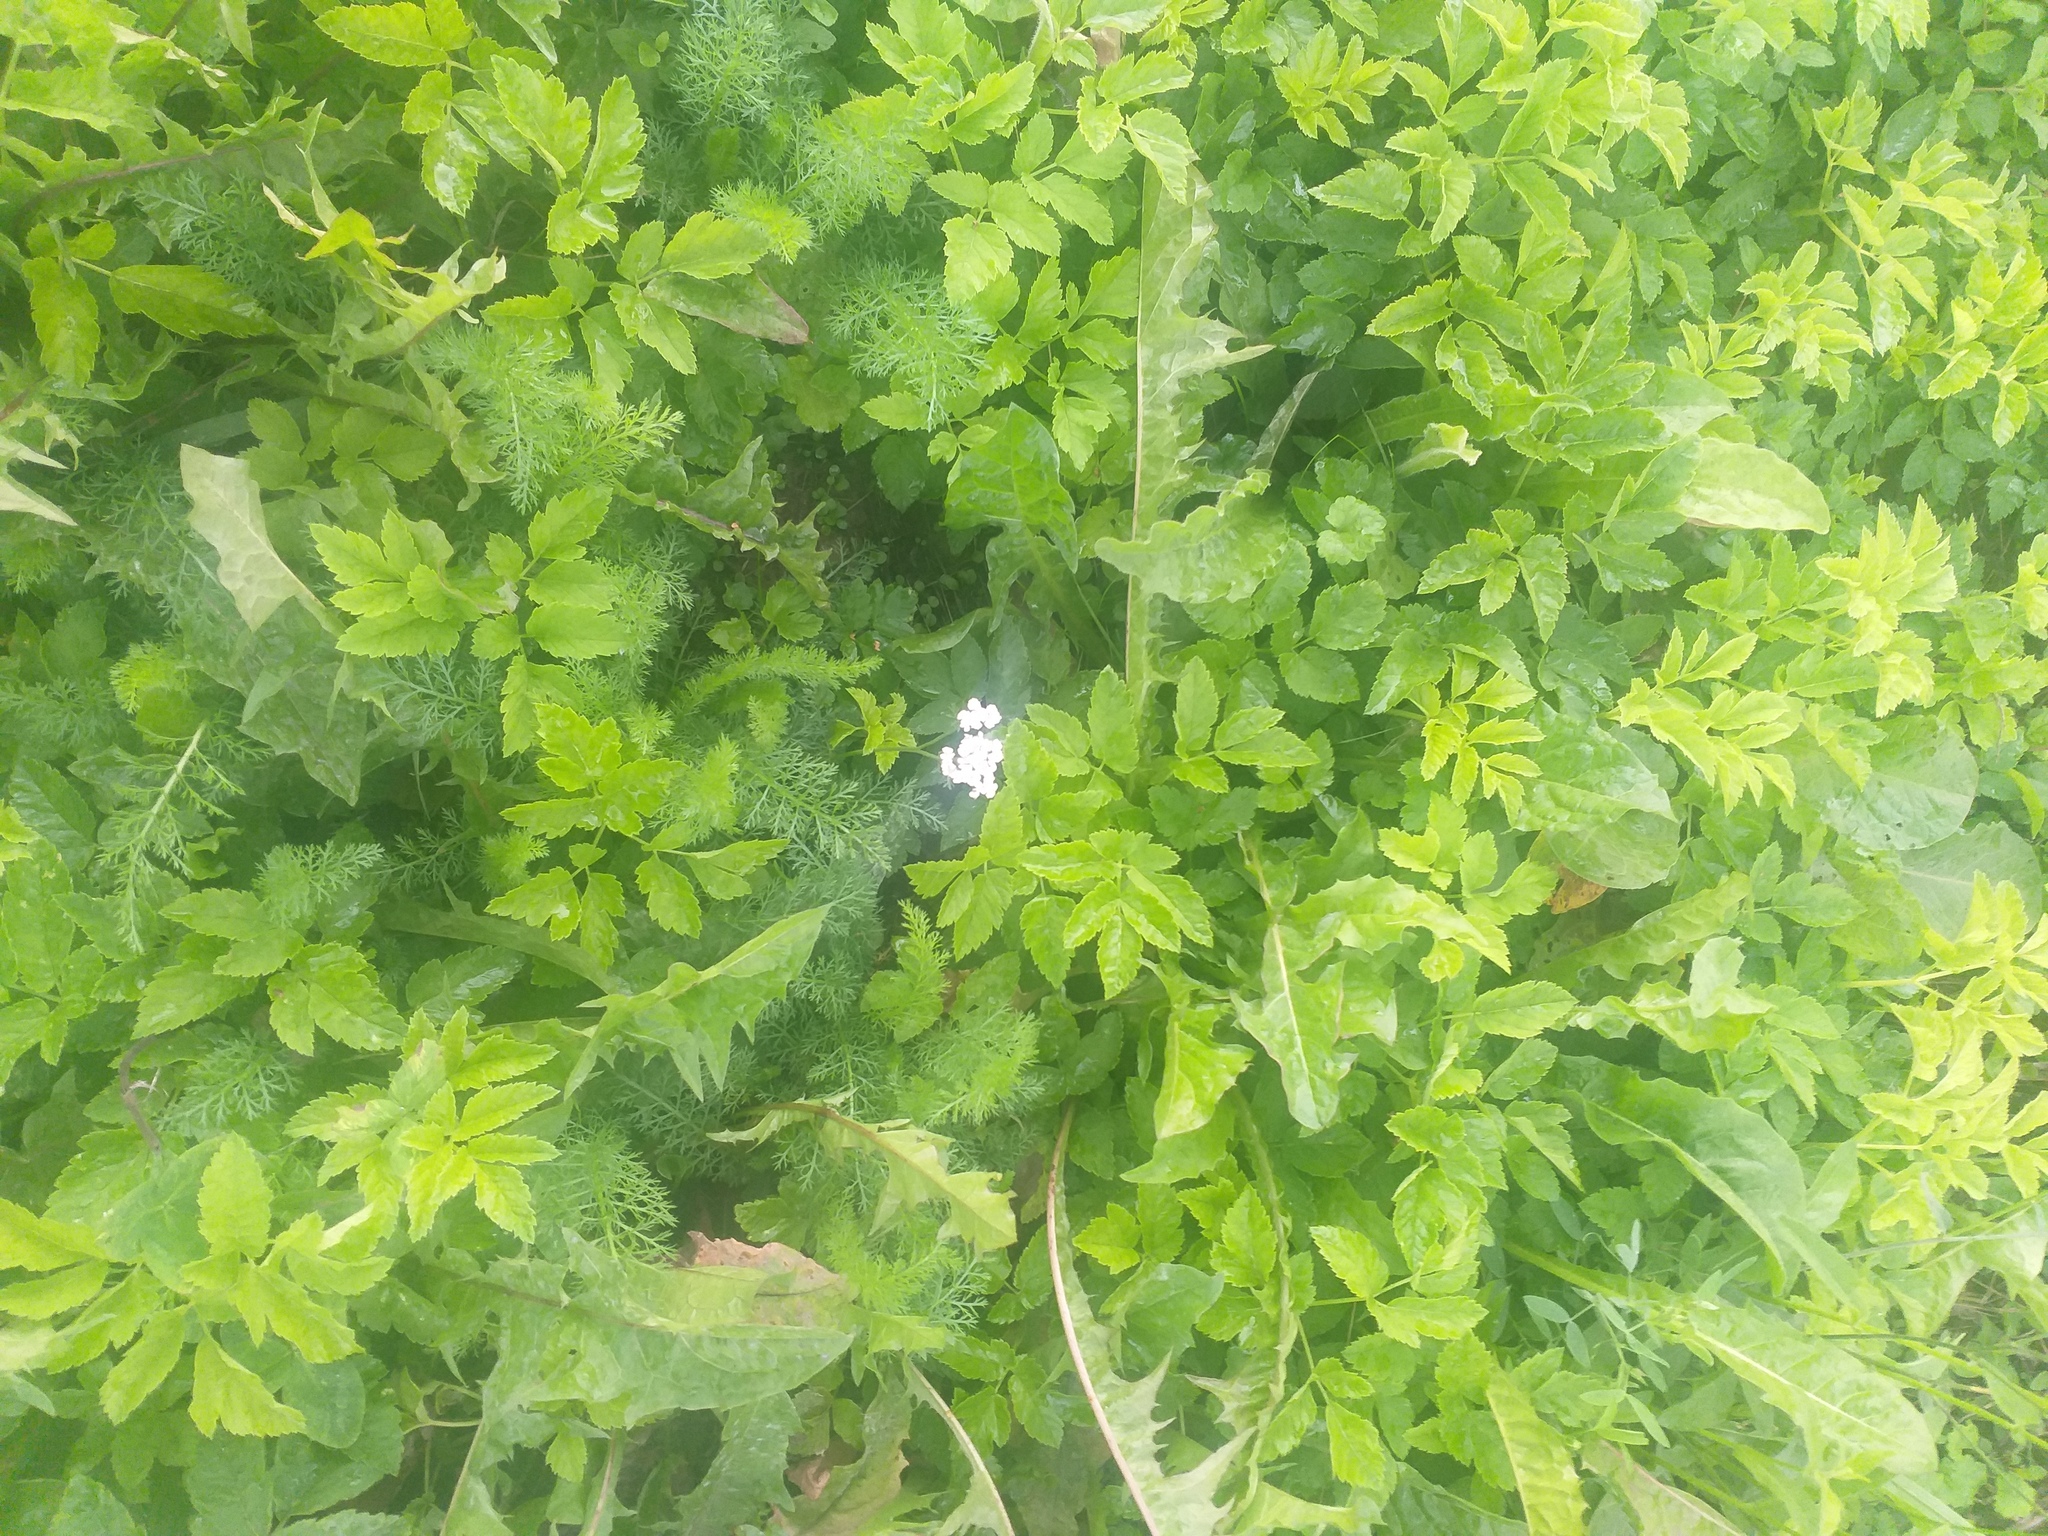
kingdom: Plantae
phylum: Tracheophyta
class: Magnoliopsida
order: Asterales
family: Asteraceae
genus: Achillea
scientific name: Achillea millefolium
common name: Yarrow
